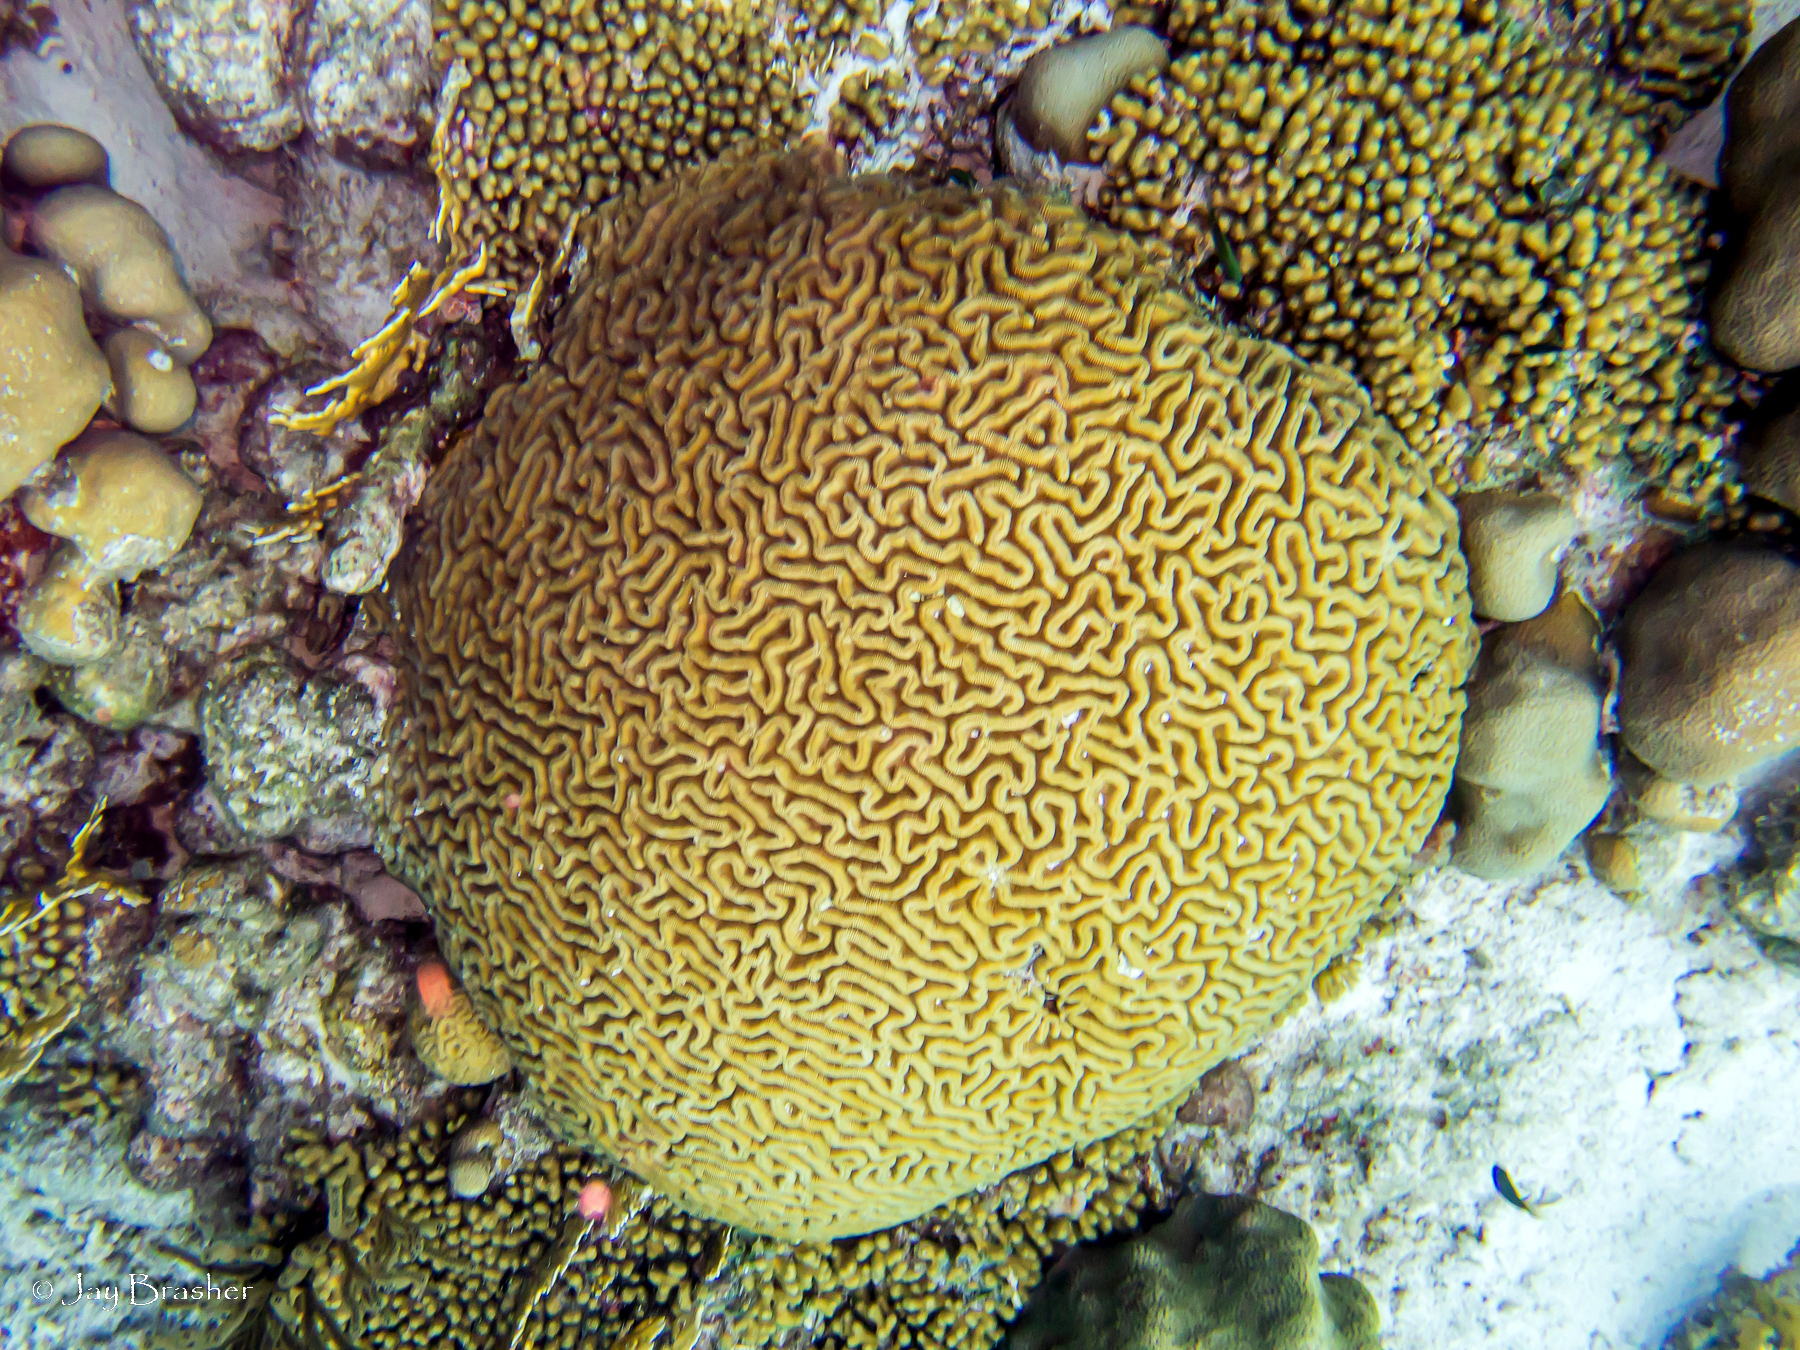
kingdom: Animalia
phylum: Cnidaria
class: Anthozoa
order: Scleractinia
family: Pocilloporidae
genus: Madracis
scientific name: Madracis auretenra
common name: Yellow pencil coral
